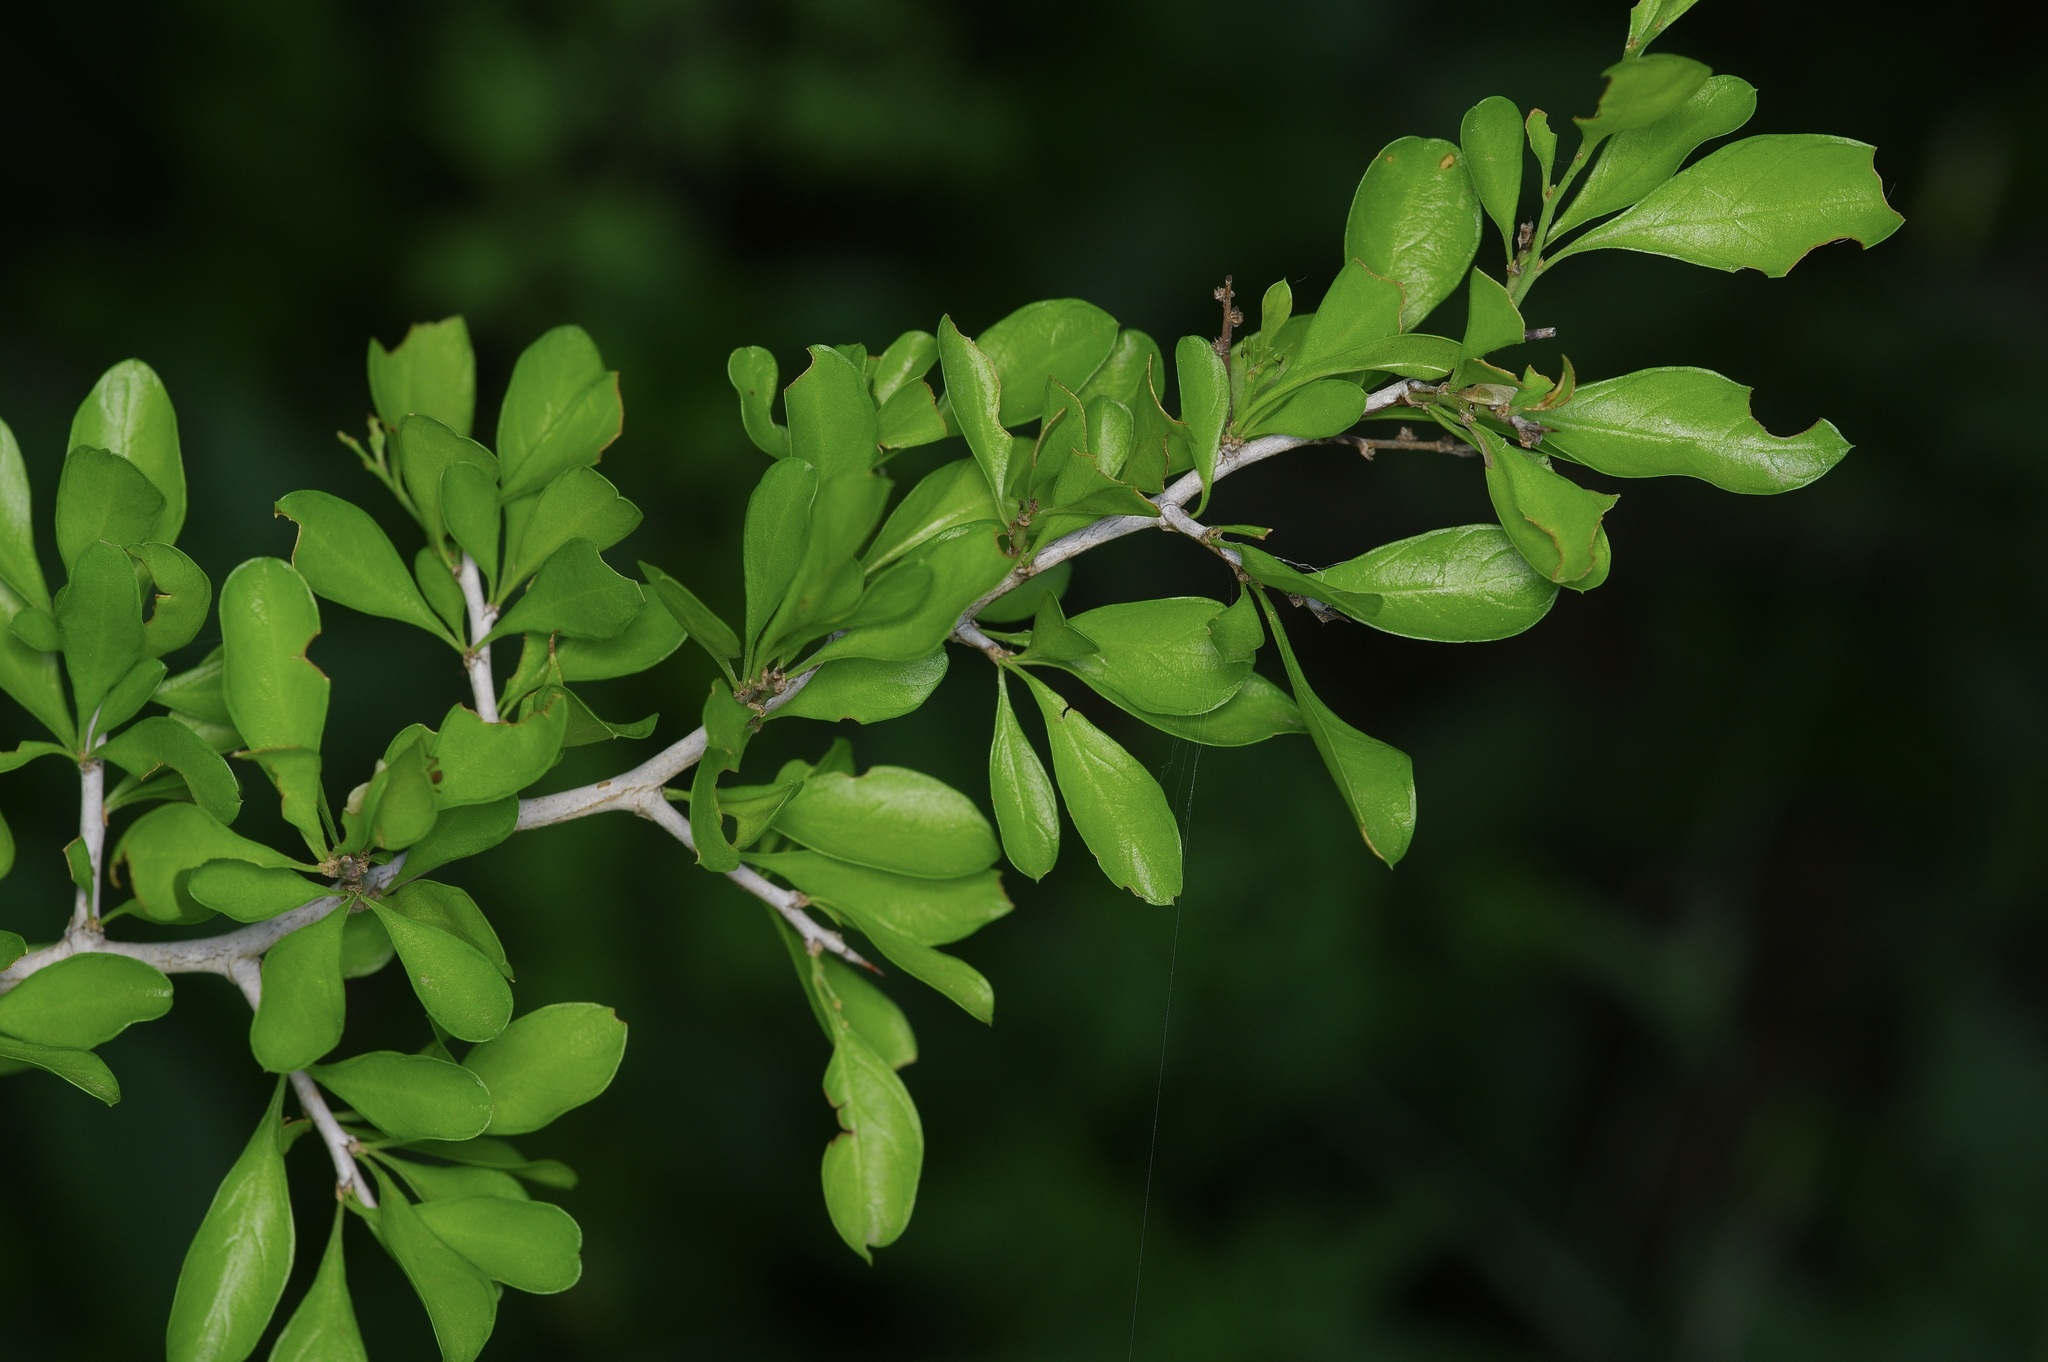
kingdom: Plantae
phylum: Tracheophyta
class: Magnoliopsida
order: Rosales
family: Rhamnaceae
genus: Condalia
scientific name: Condalia hookeri
